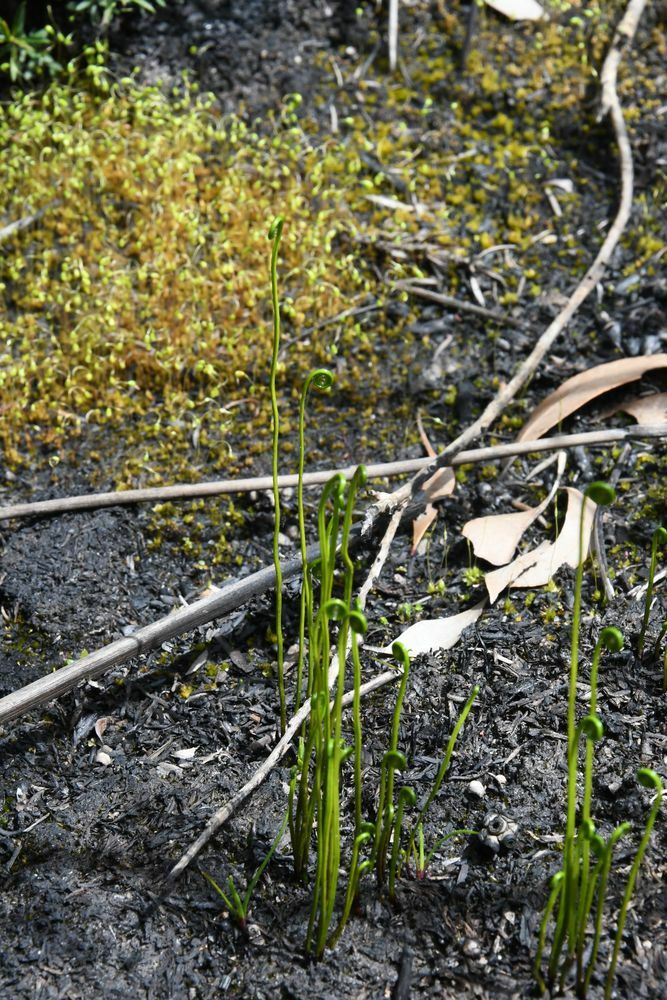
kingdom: Plantae
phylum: Tracheophyta
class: Polypodiopsida
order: Schizaeales
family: Schizaeaceae
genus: Microschizaea
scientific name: Microschizaea fistulosa
